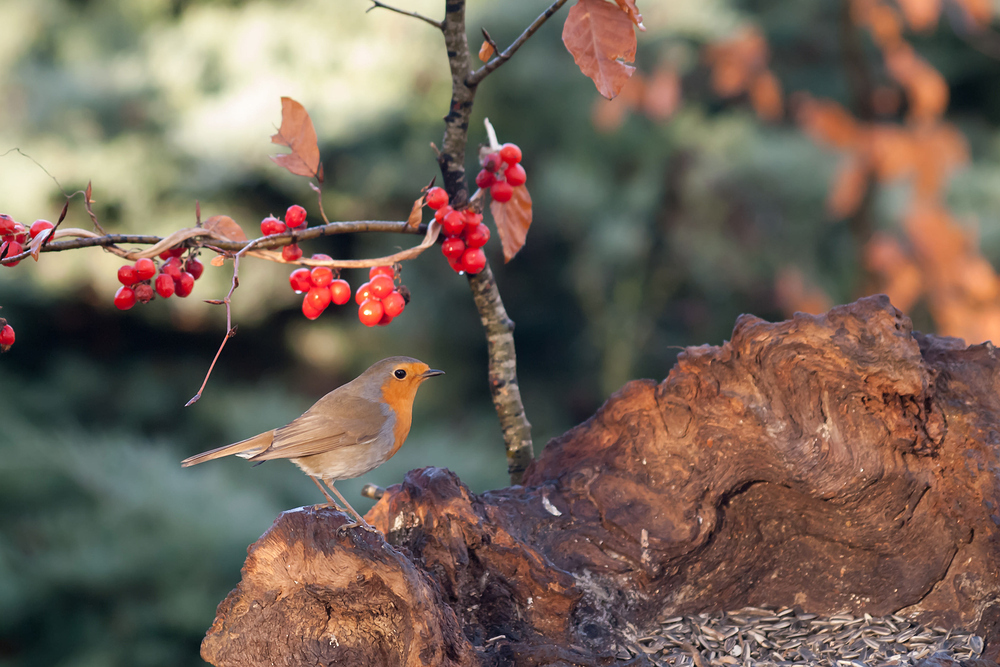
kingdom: Animalia
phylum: Chordata
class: Aves
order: Passeriformes
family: Muscicapidae
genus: Erithacus
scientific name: Erithacus rubecula
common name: European robin
